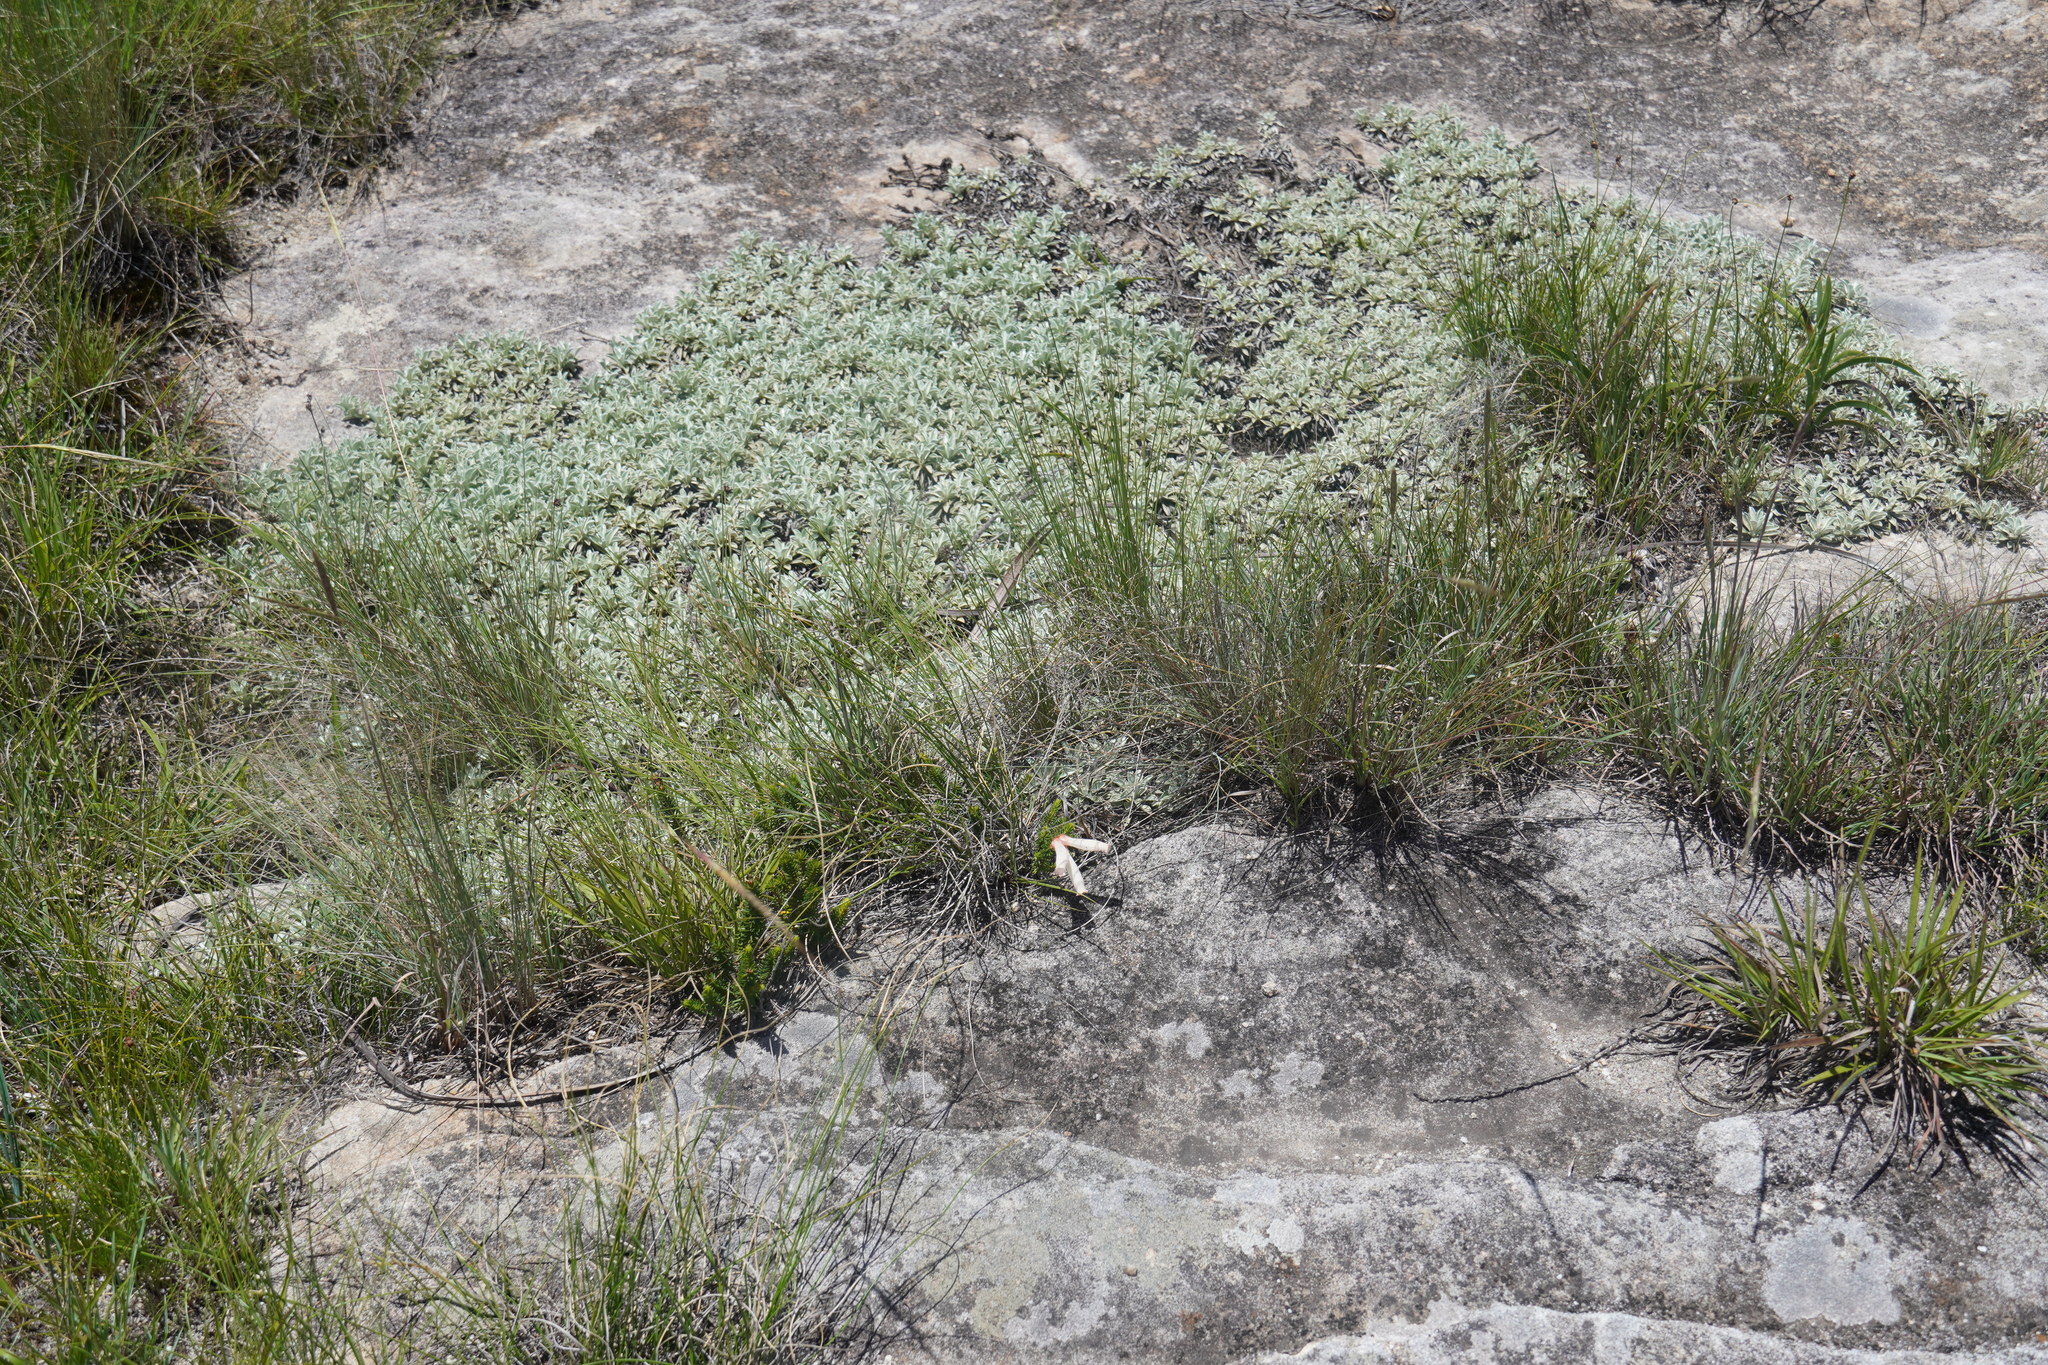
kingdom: Plantae
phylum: Tracheophyta
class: Magnoliopsida
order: Ericales
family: Ericaceae
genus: Erica
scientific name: Erica cerinthoides
